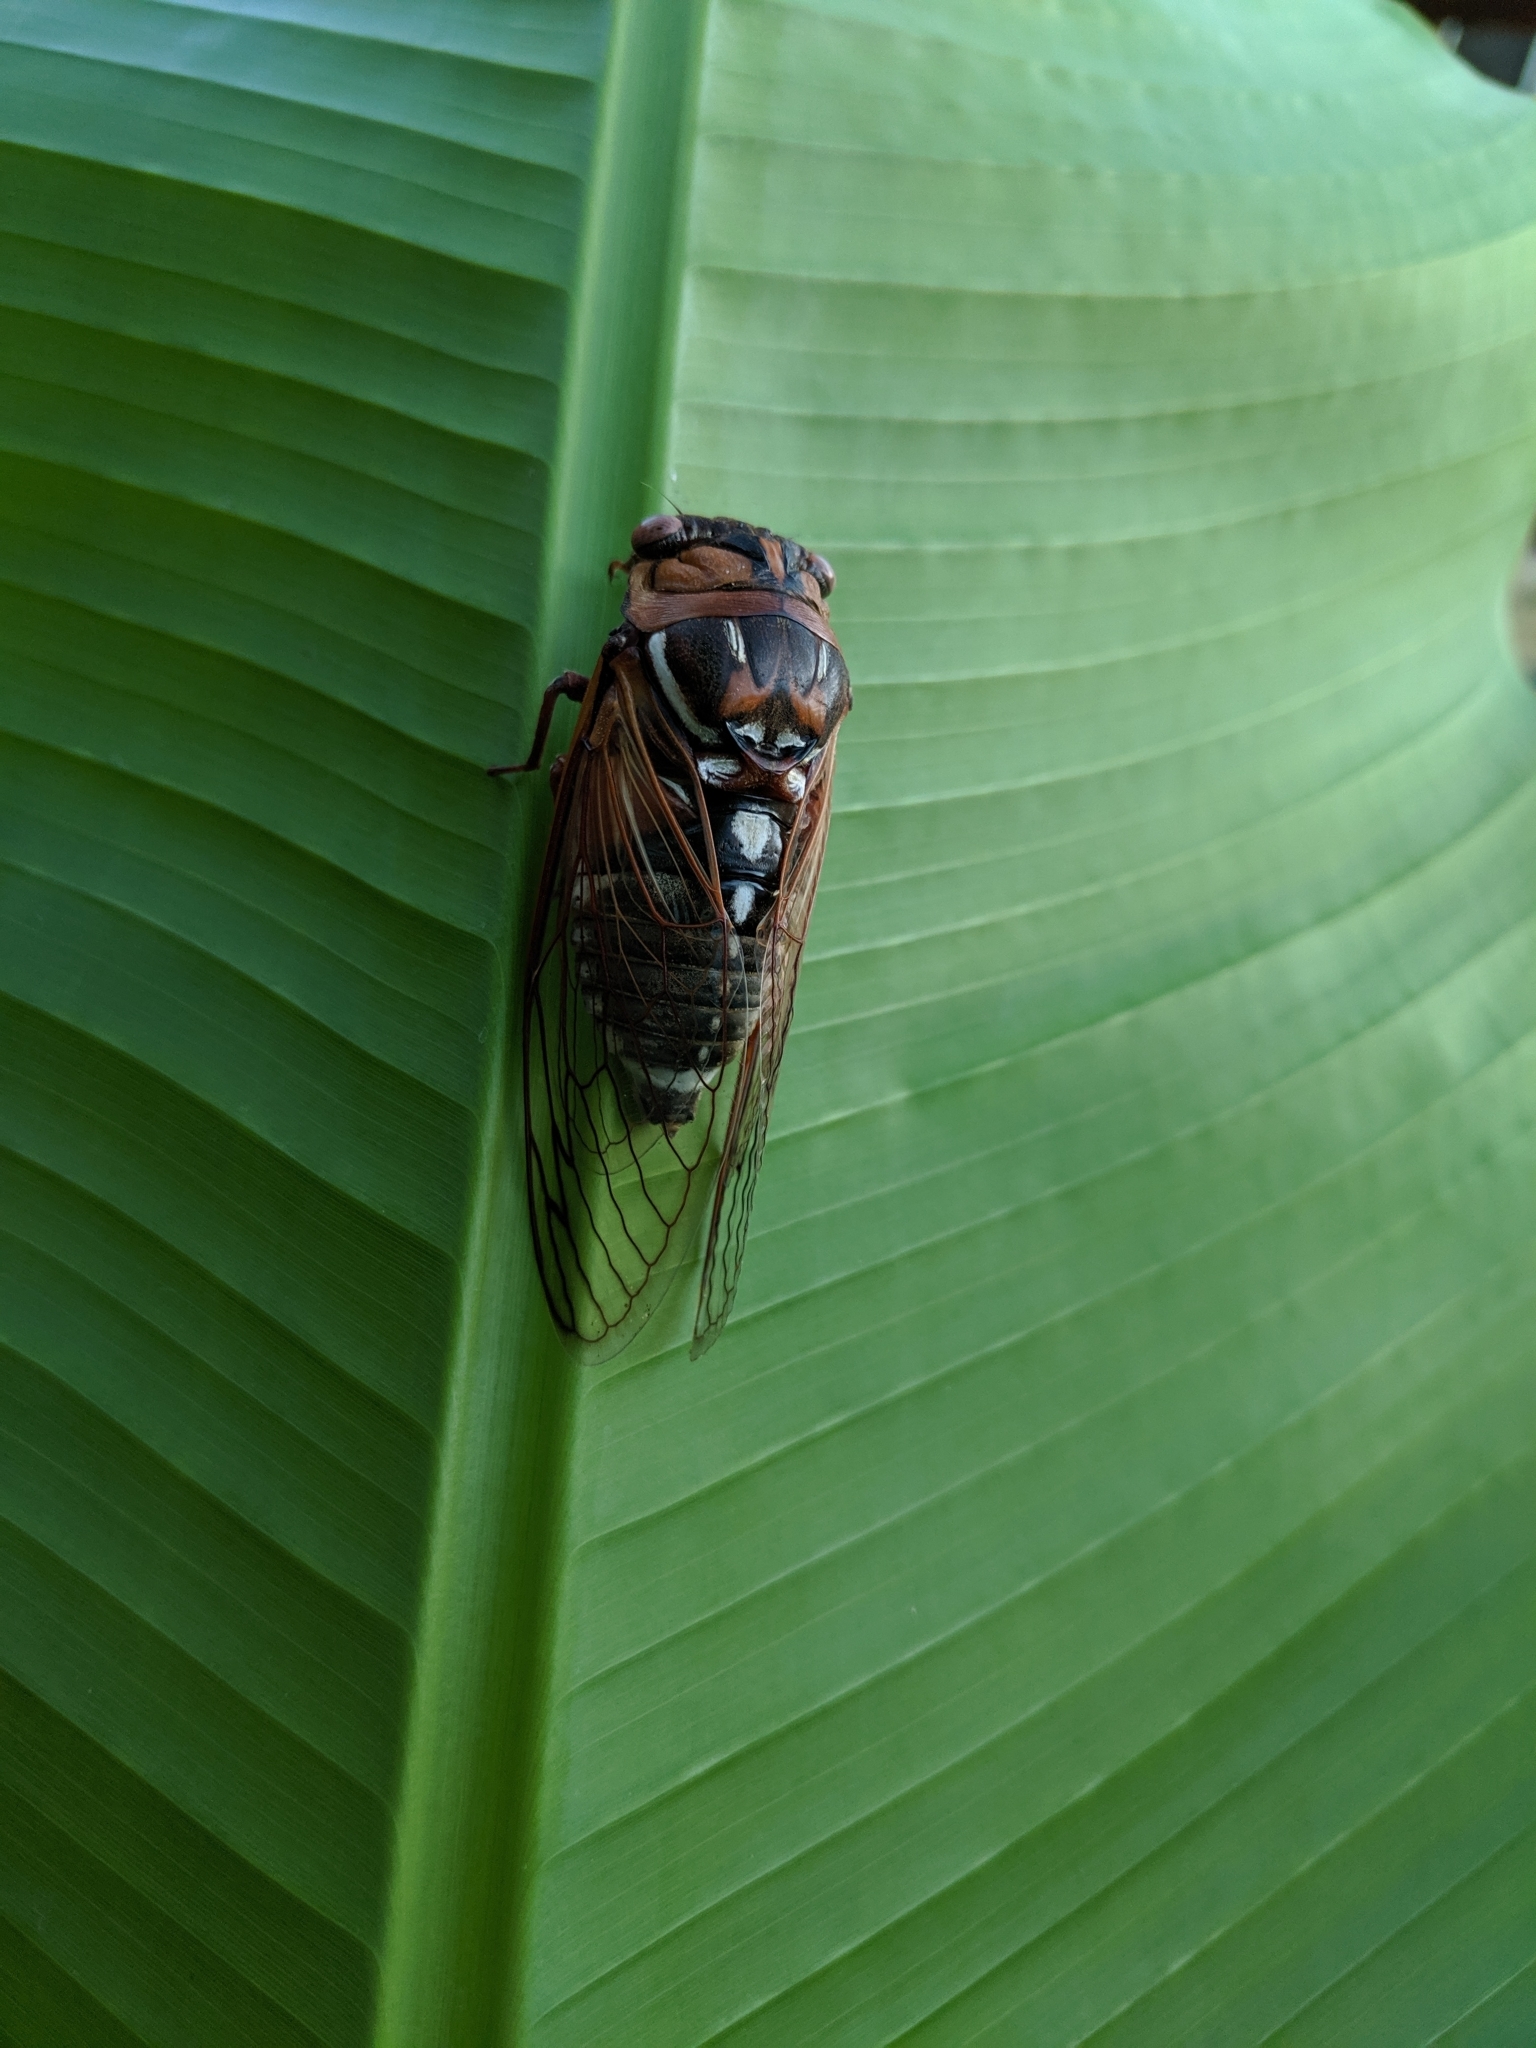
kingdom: Animalia
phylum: Arthropoda
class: Insecta
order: Hemiptera
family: Cicadidae
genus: Megatibicen
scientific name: Megatibicen dorsatus
